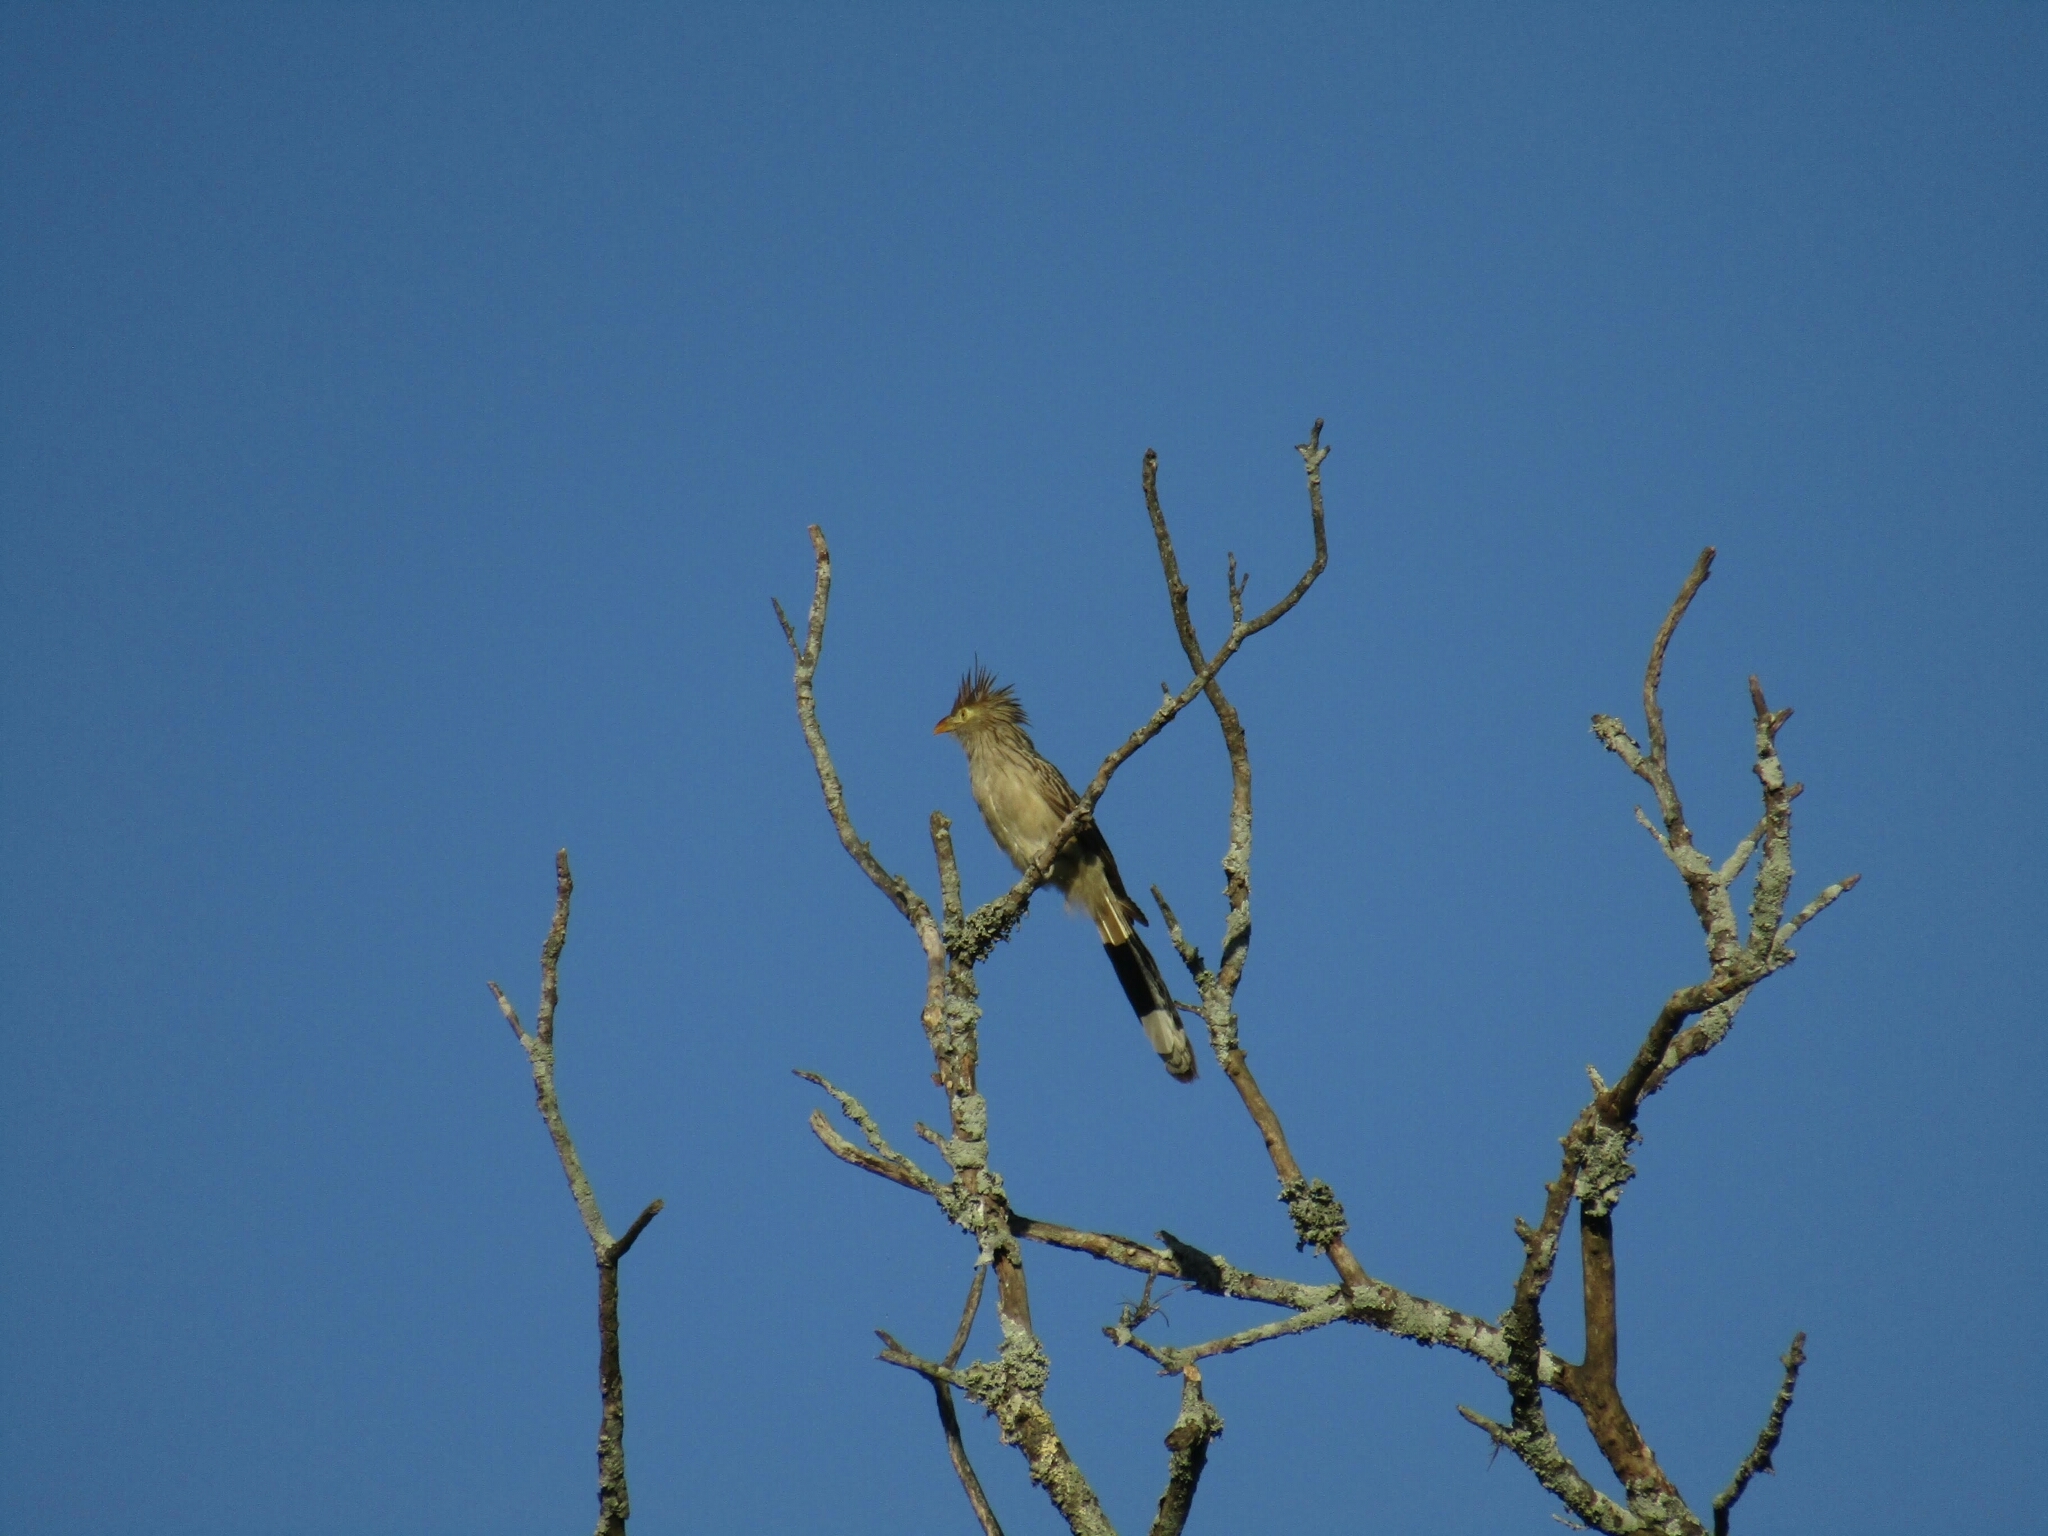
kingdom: Animalia
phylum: Chordata
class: Aves
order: Cuculiformes
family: Cuculidae
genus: Guira
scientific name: Guira guira
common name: Guira cuckoo
